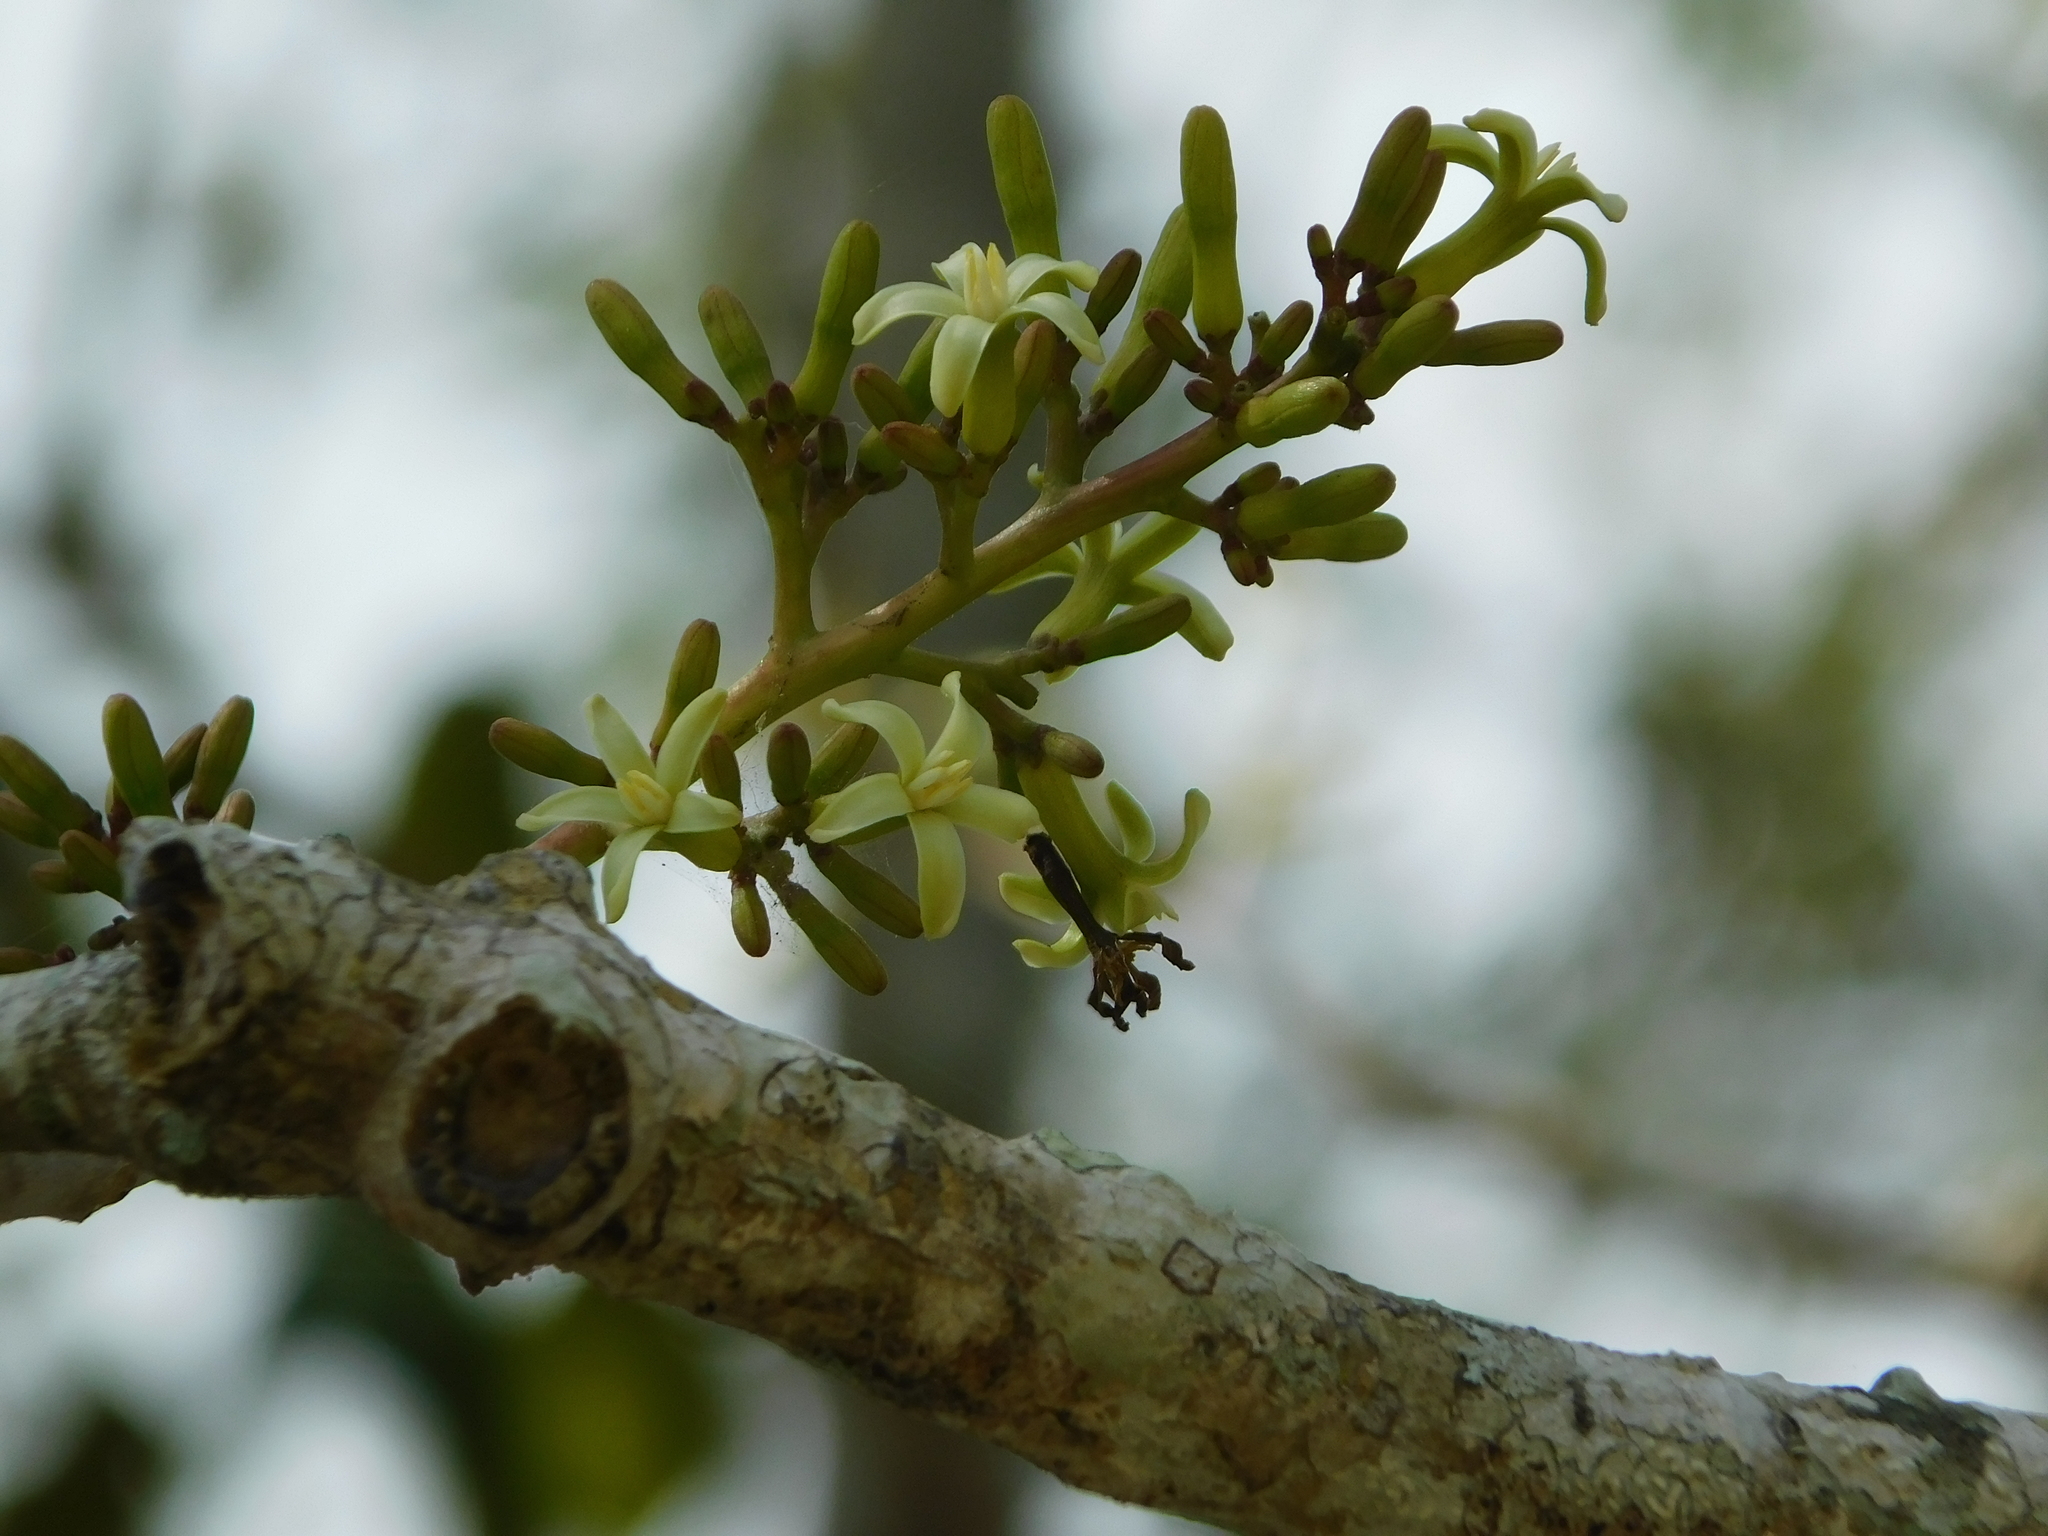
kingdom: Plantae
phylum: Tracheophyta
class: Magnoliopsida
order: Brassicales
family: Caricaceae
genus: Jacaratia
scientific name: Jacaratia mexicana
